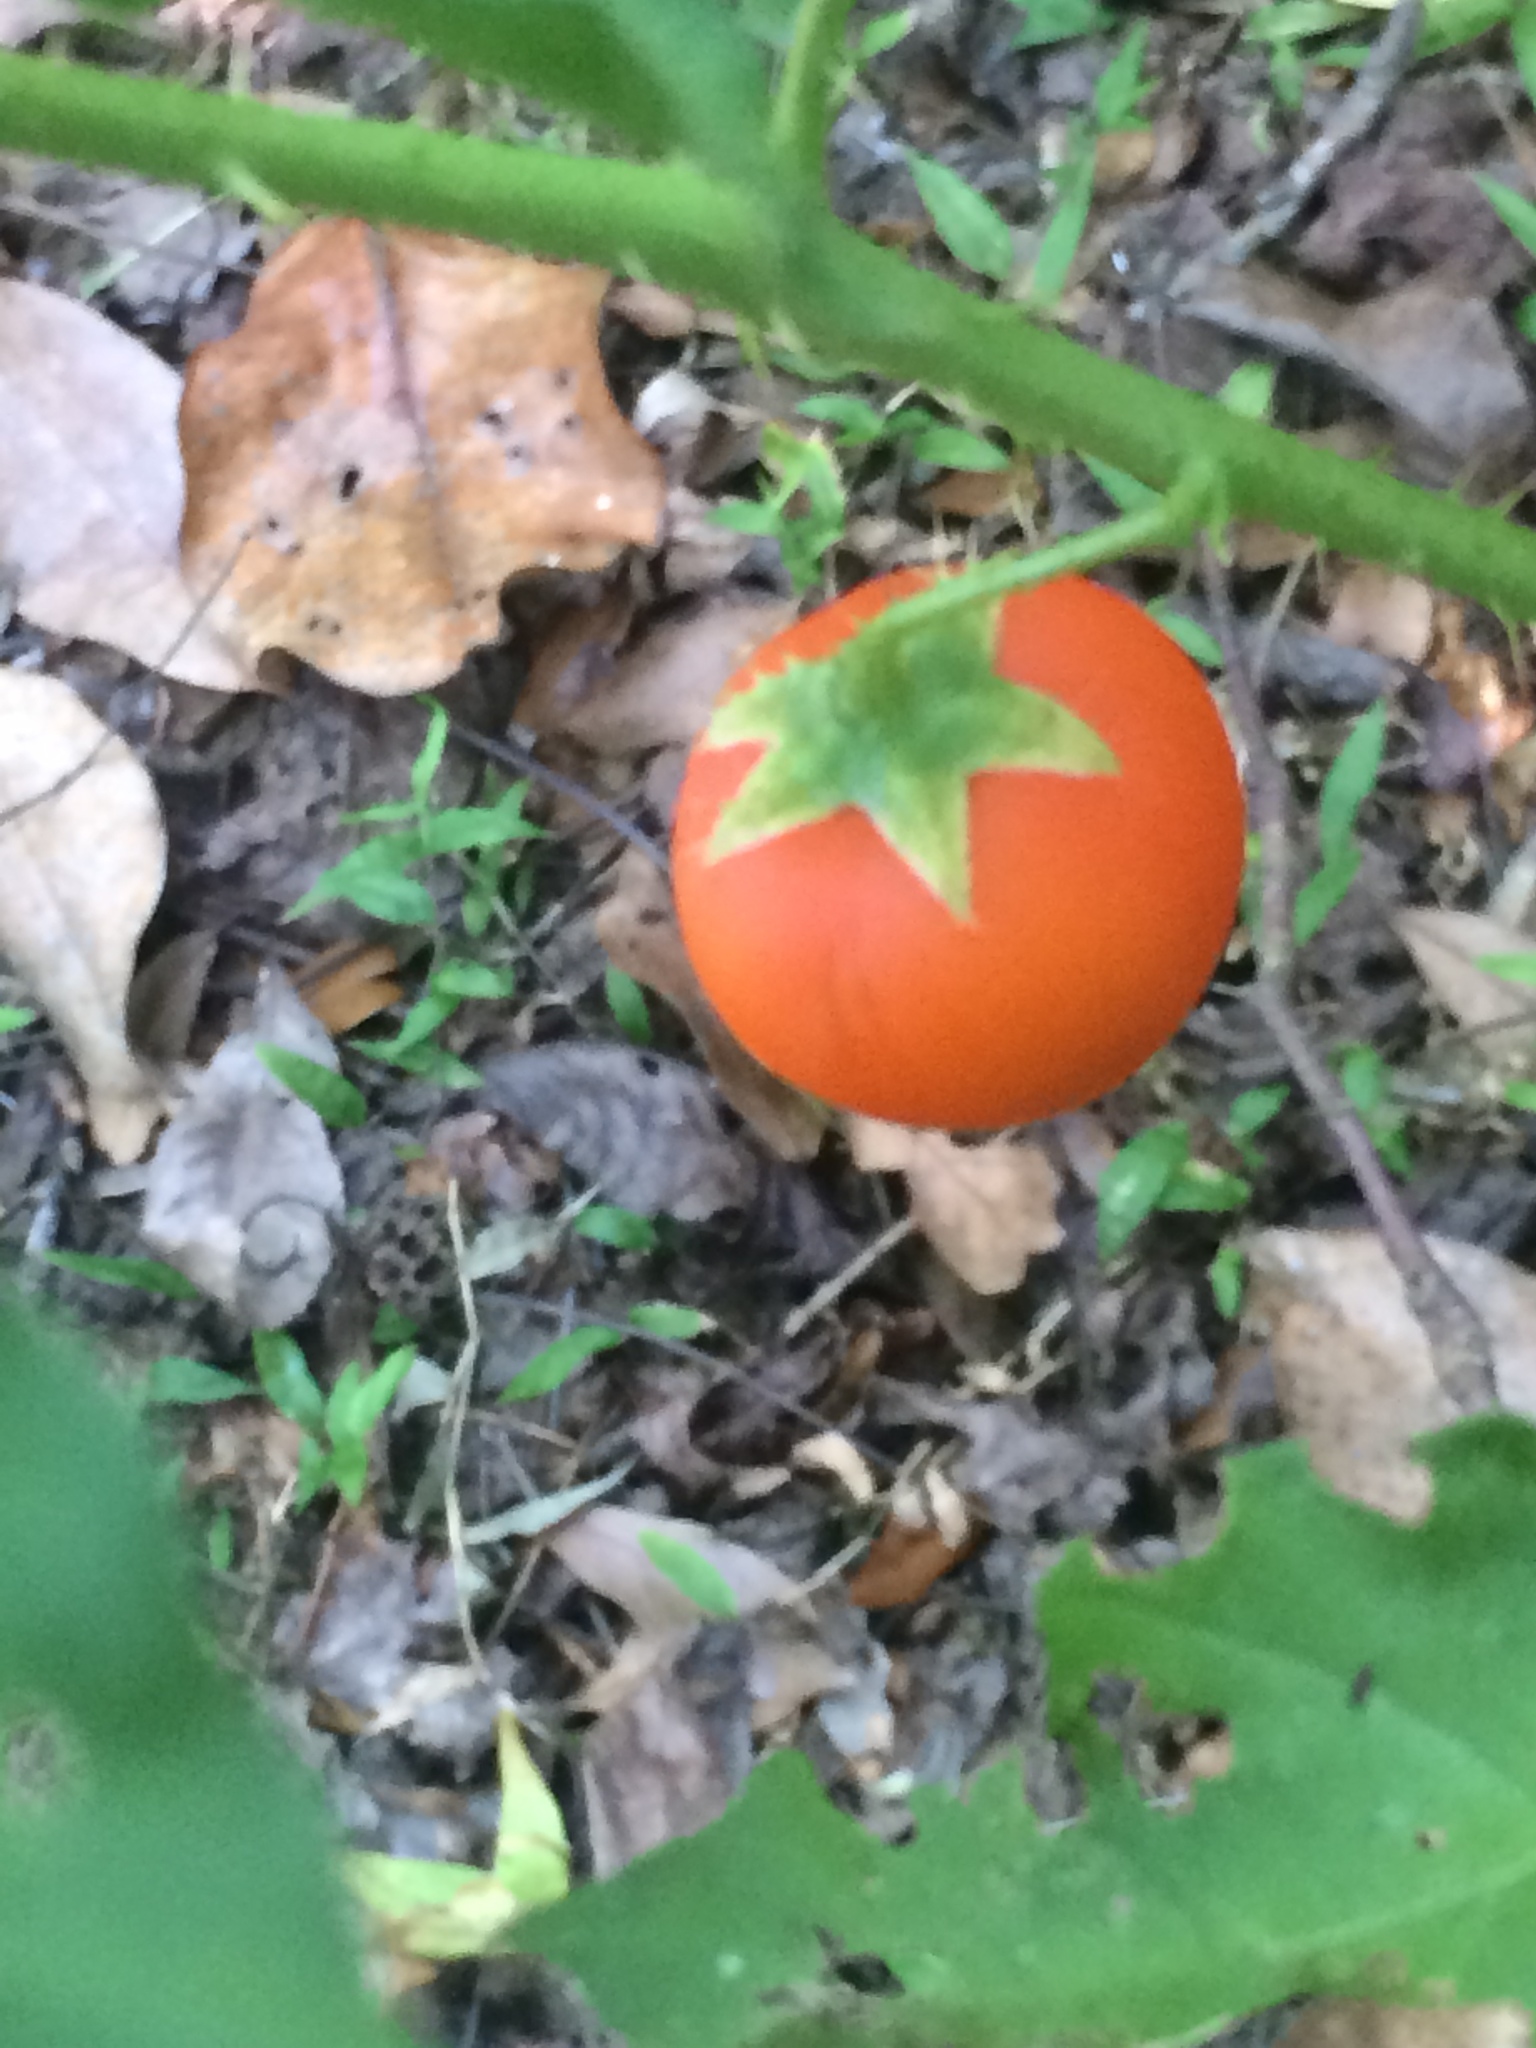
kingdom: Plantae
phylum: Tracheophyta
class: Magnoliopsida
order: Solanales
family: Solanaceae
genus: Solanum
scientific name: Solanum capsicoides
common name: Cockroach berry
